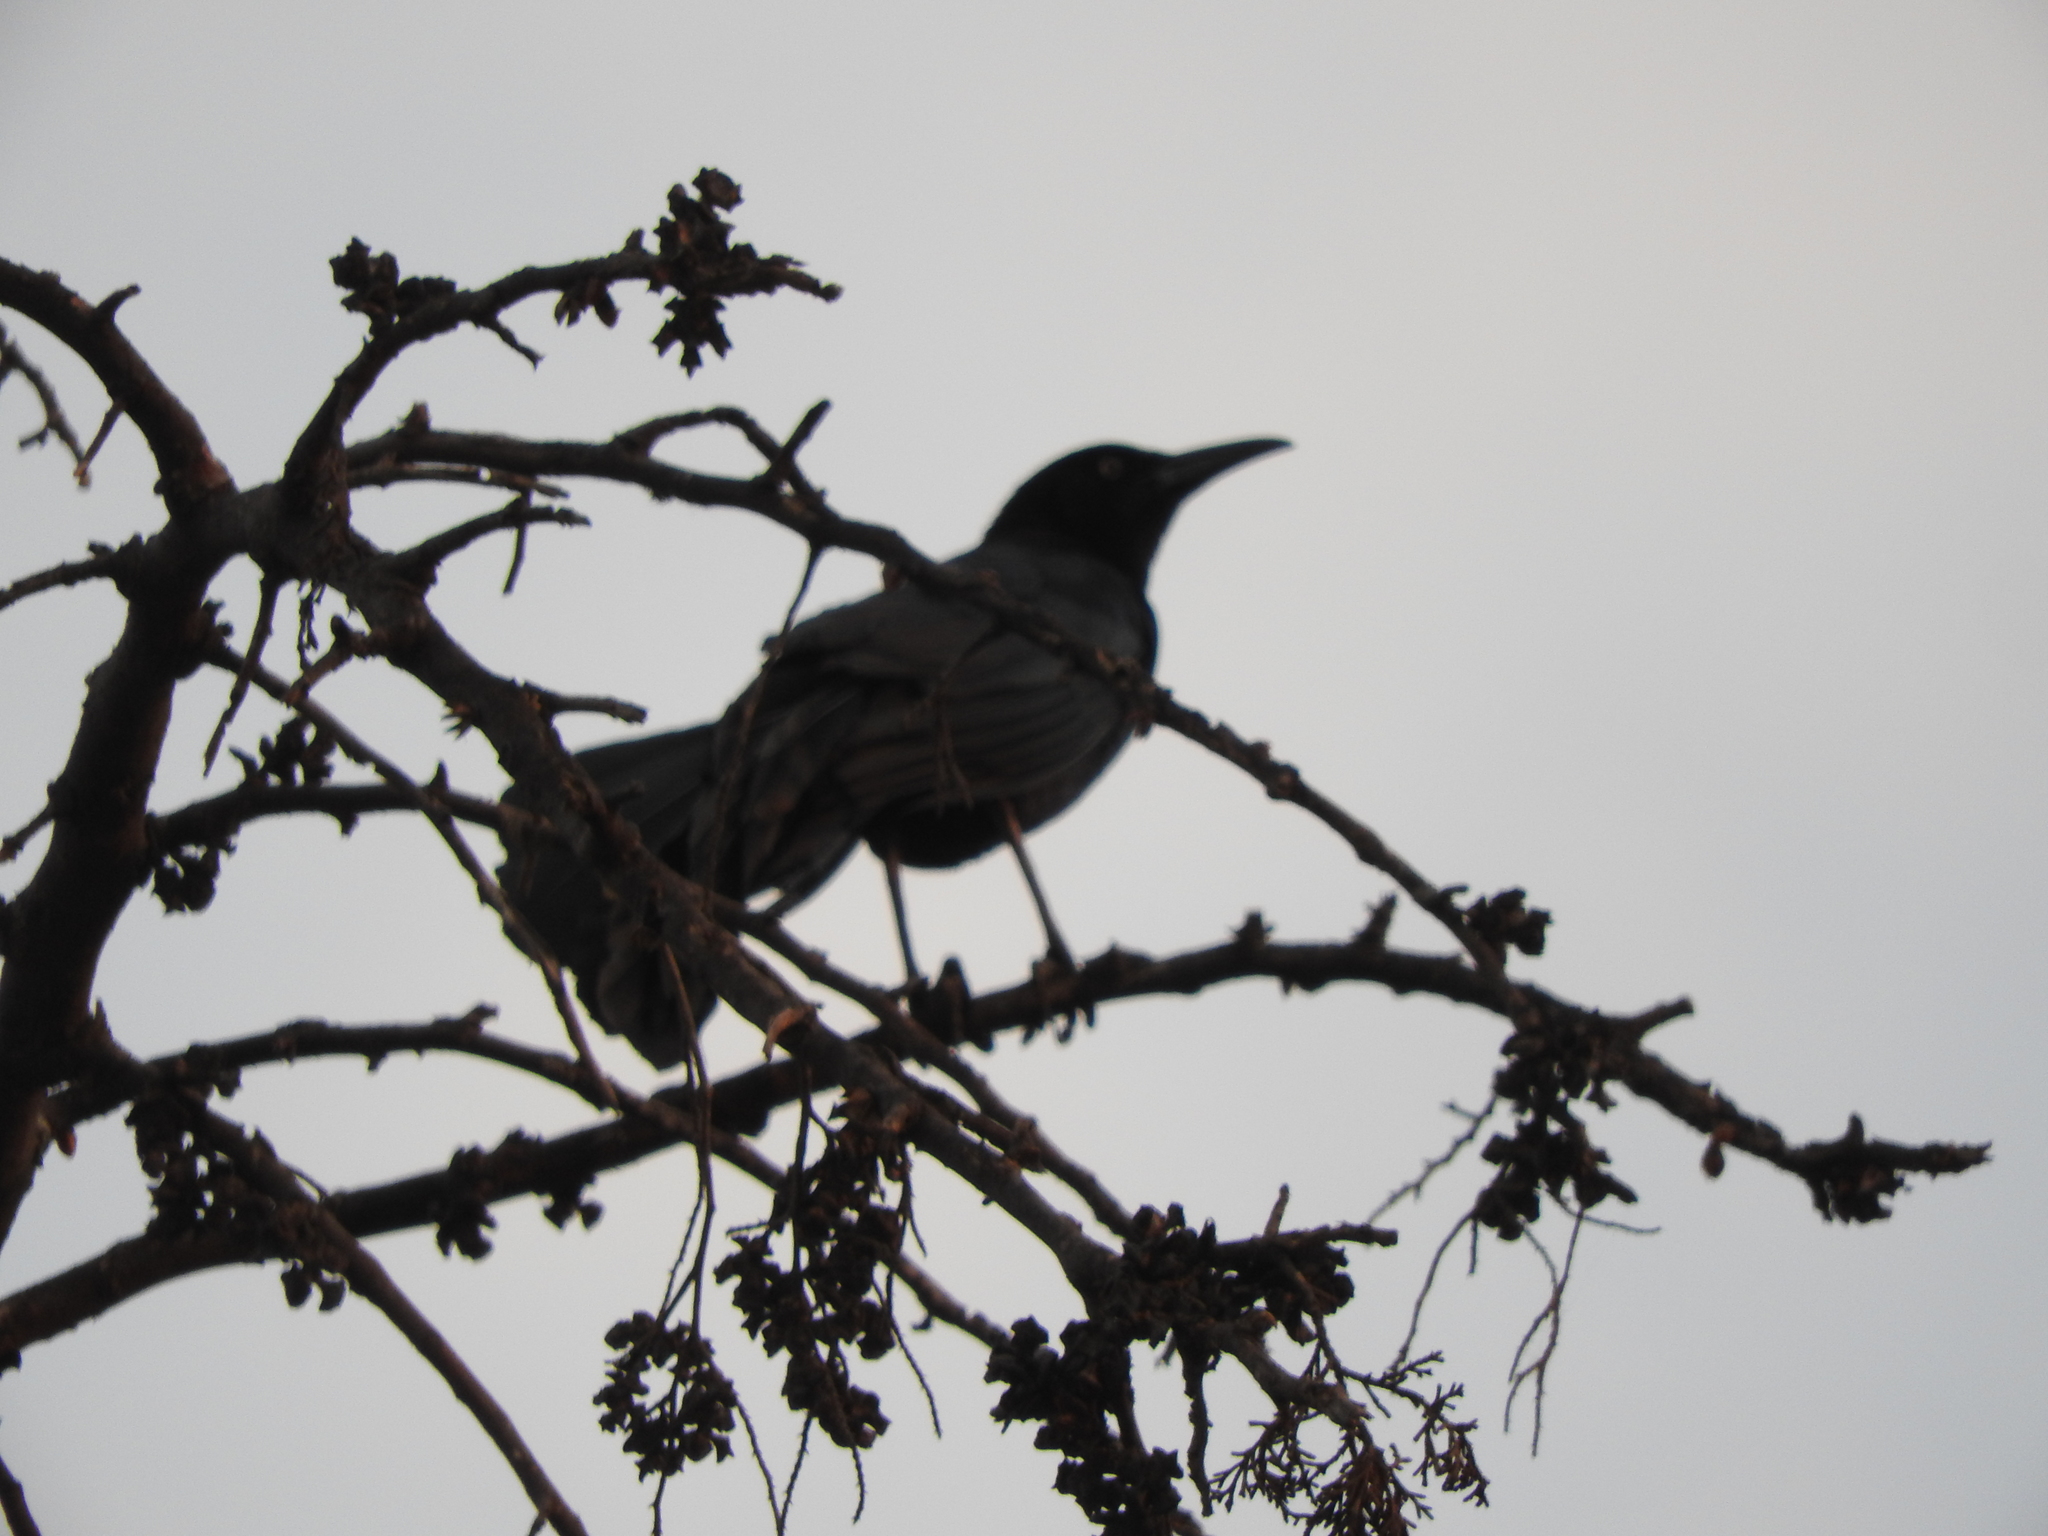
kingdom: Animalia
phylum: Chordata
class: Aves
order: Passeriformes
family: Icteridae
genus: Quiscalus
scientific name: Quiscalus mexicanus
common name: Great-tailed grackle
